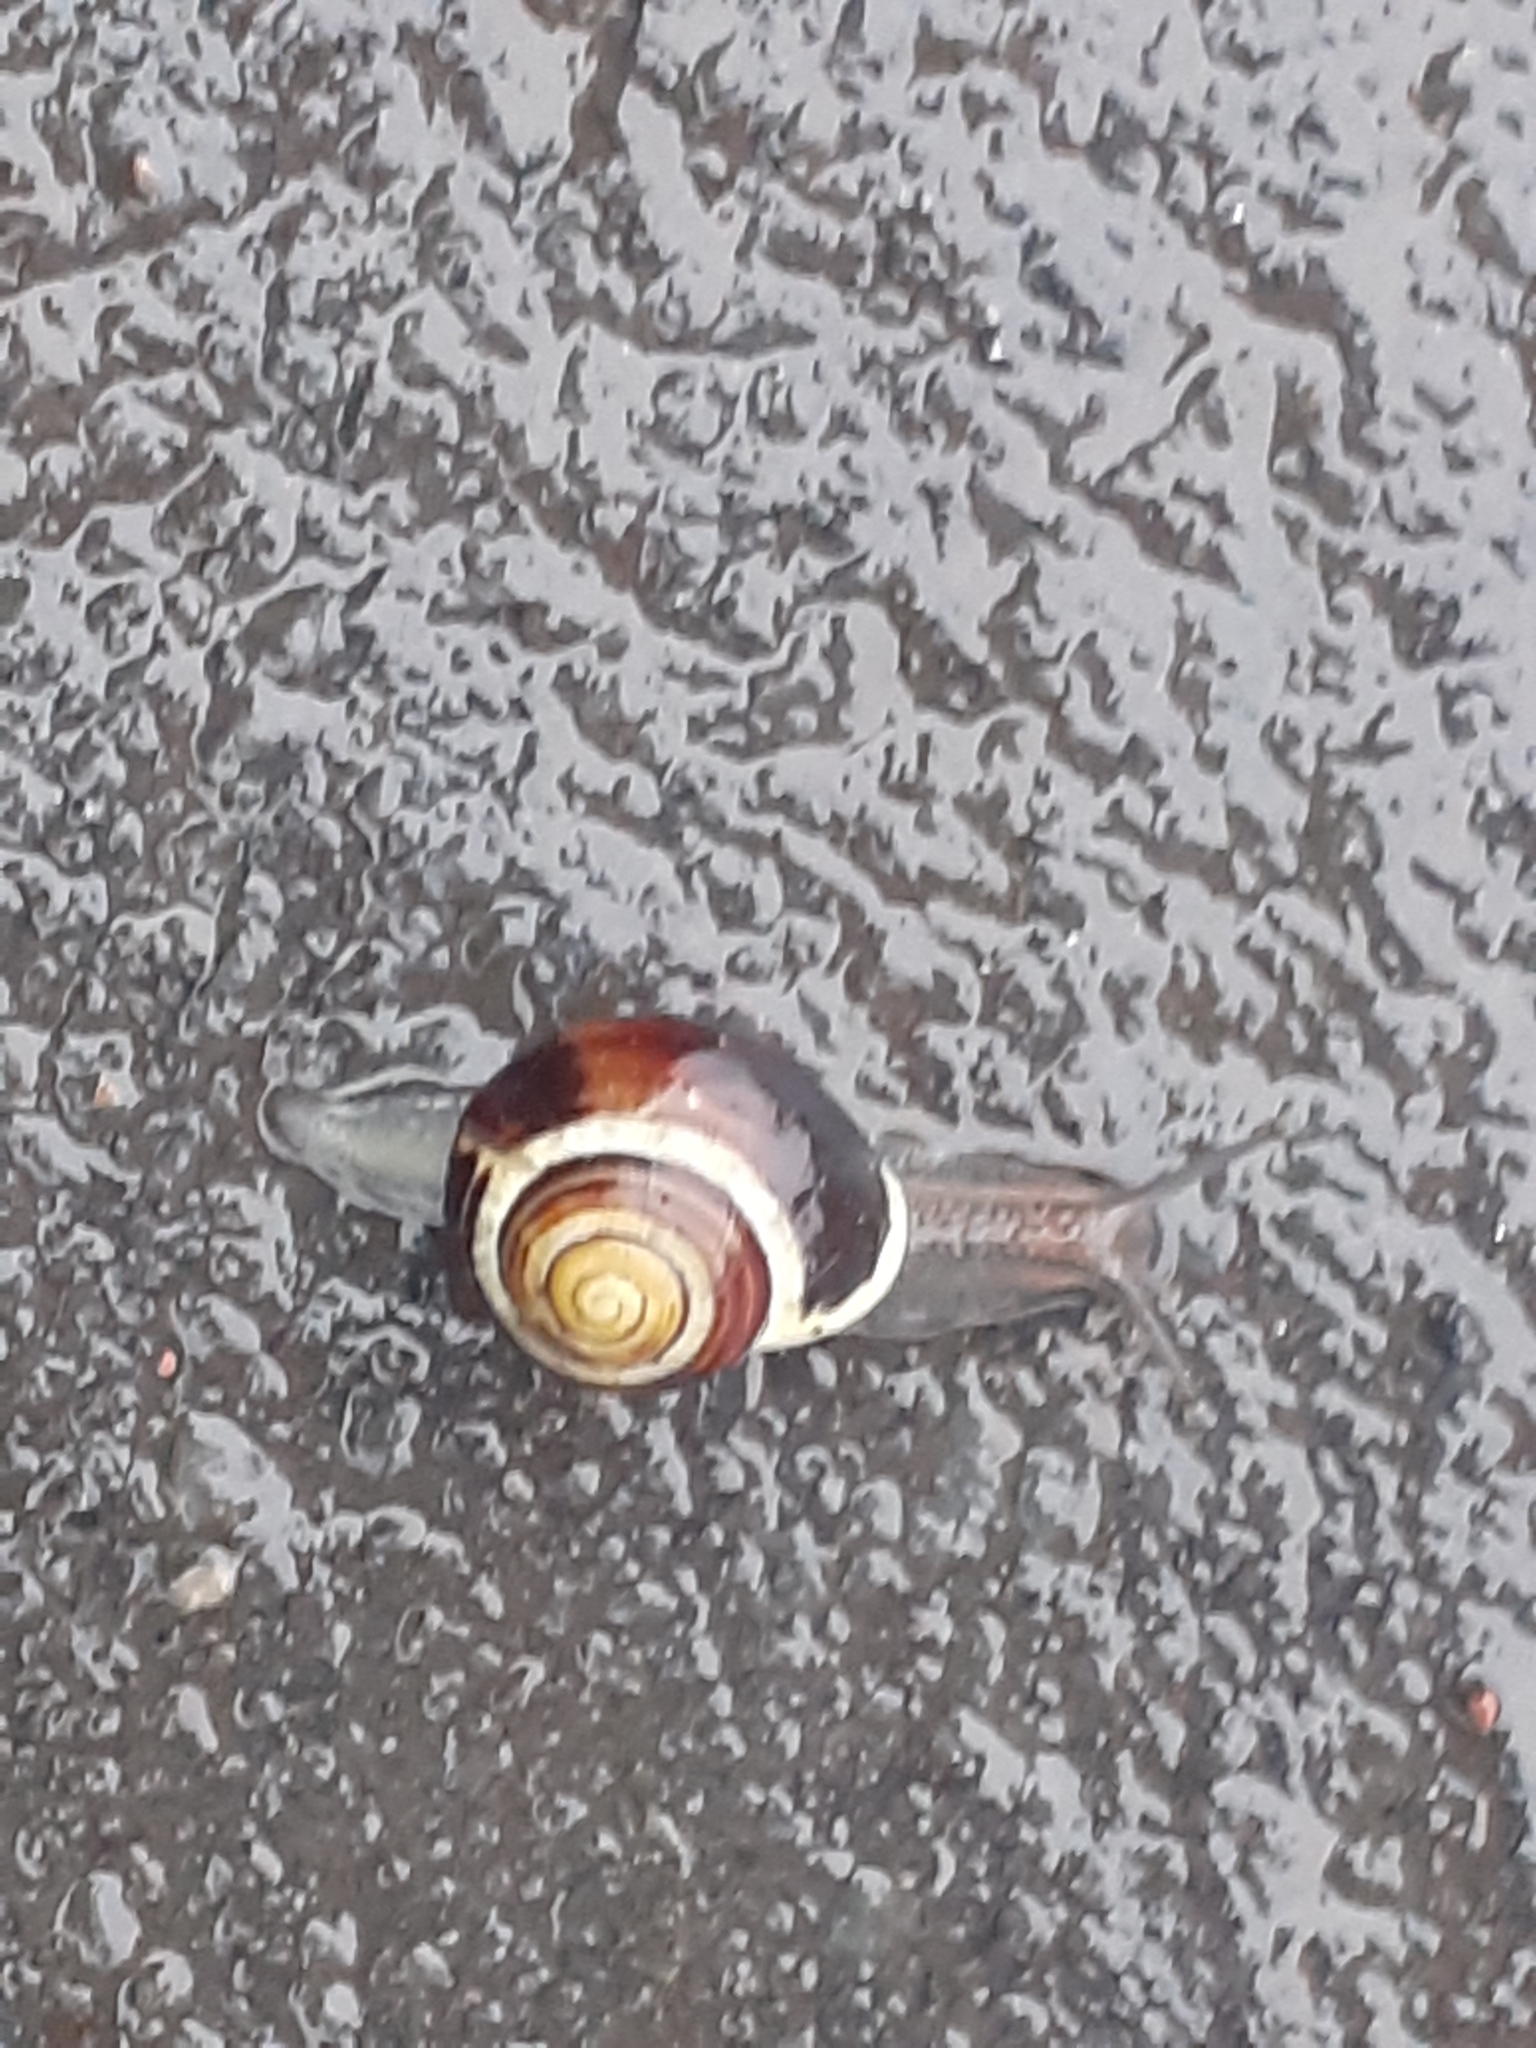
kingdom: Animalia
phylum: Mollusca
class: Gastropoda
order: Stylommatophora
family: Helicidae
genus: Cepaea
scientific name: Cepaea hortensis
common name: White-lip gardensnail
